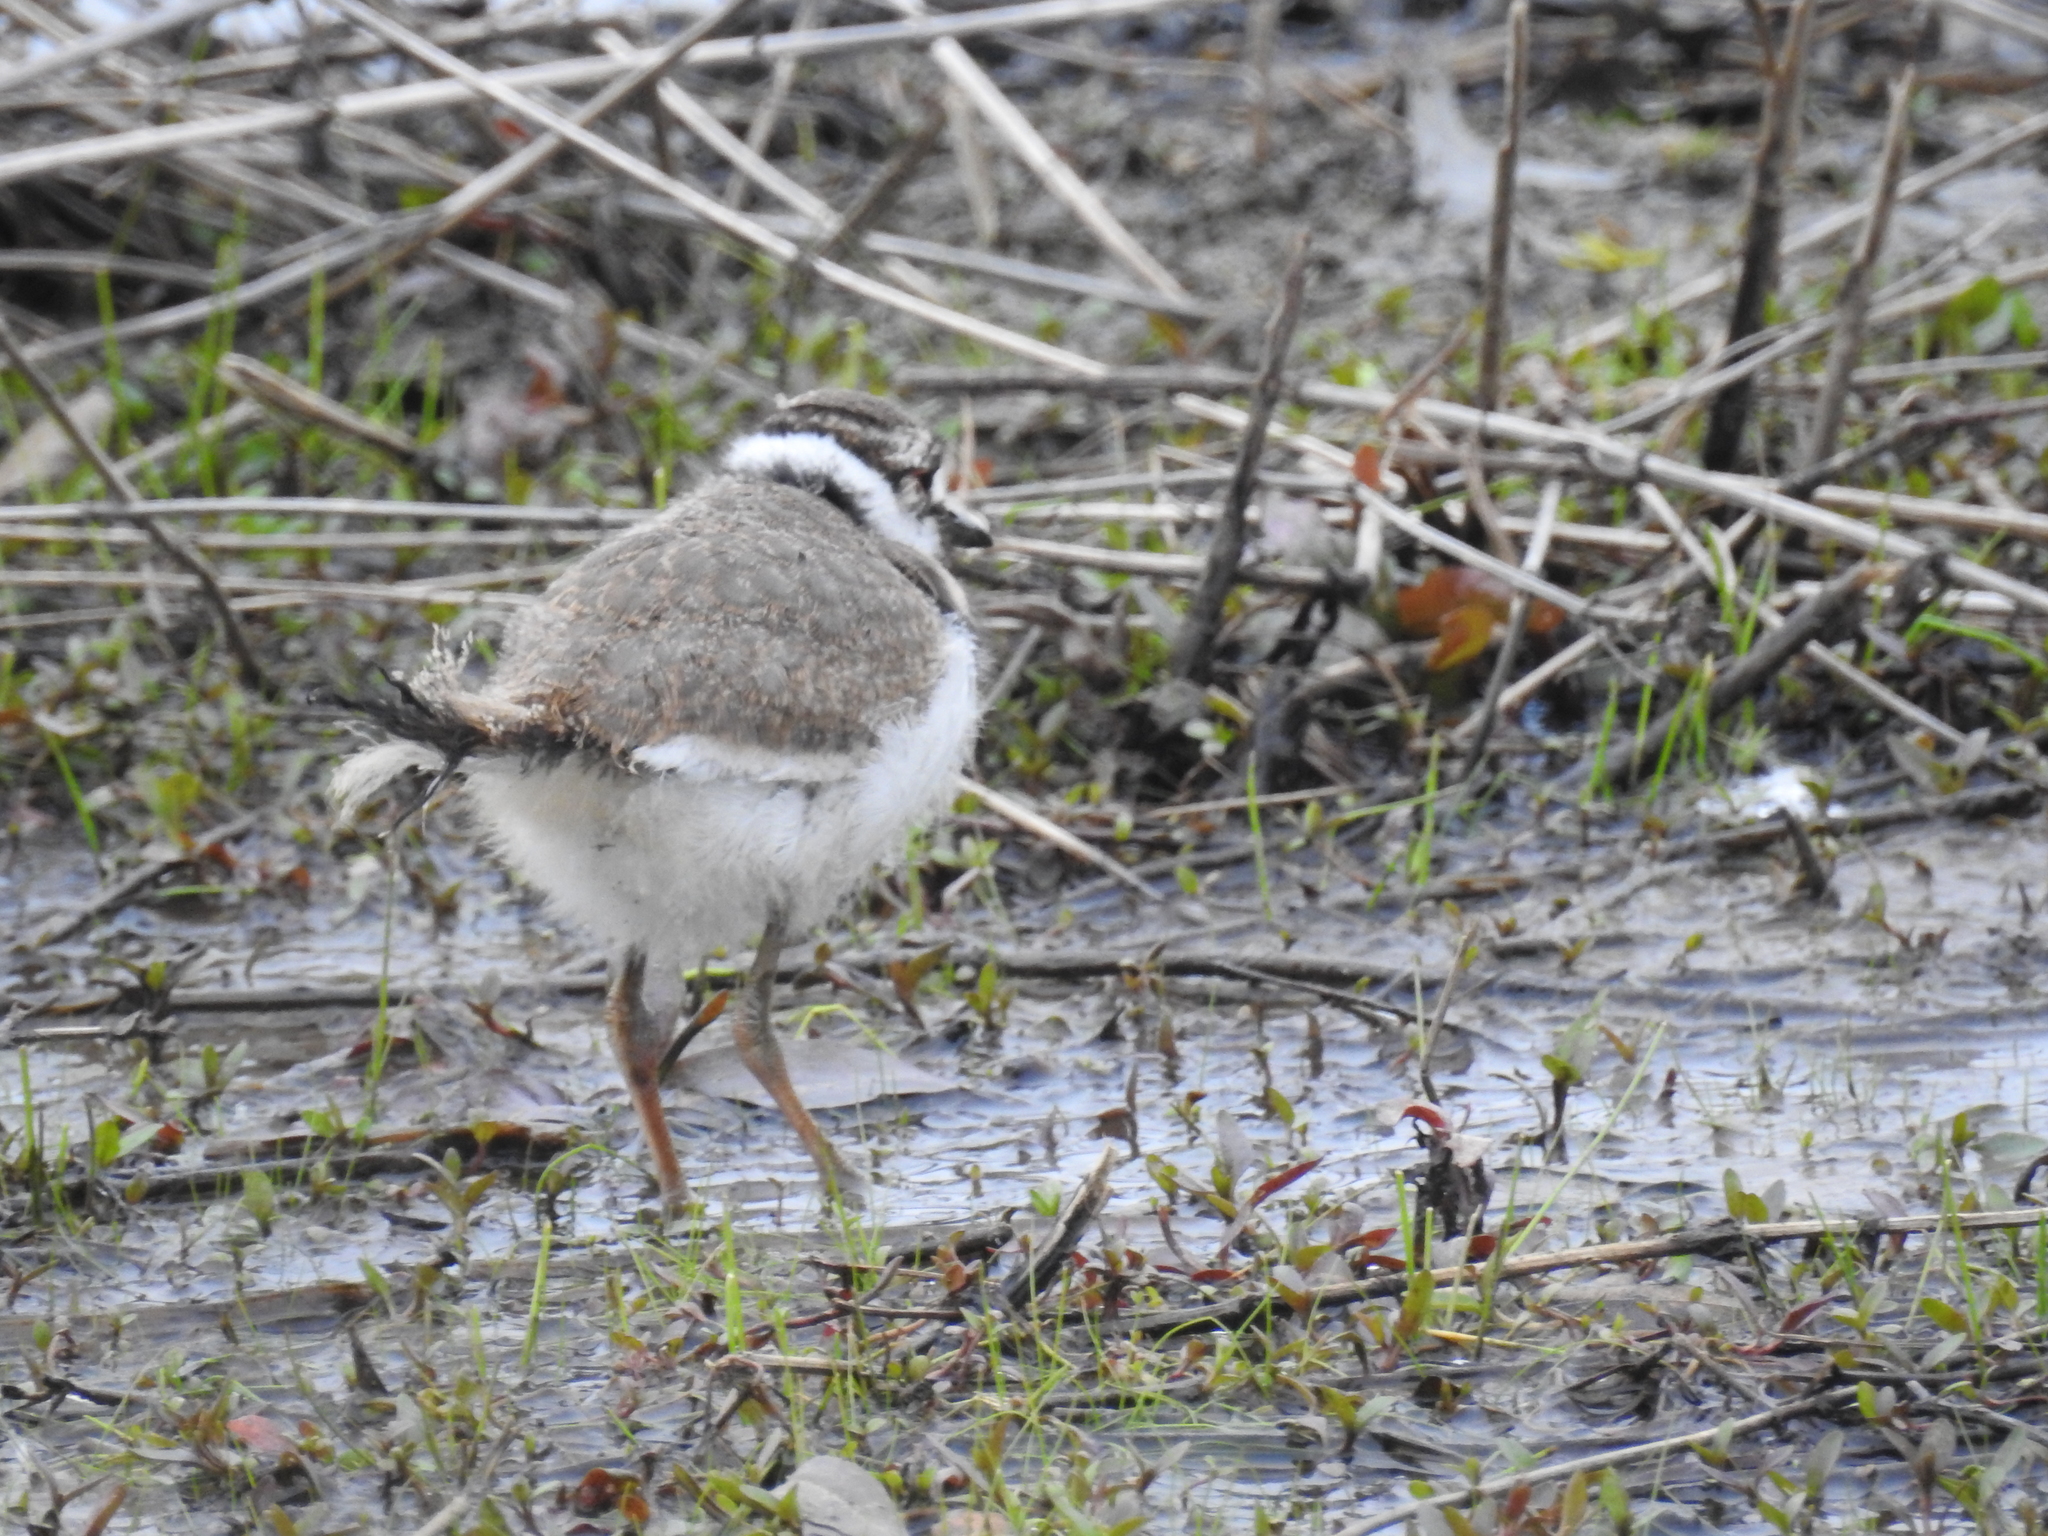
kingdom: Animalia
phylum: Chordata
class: Aves
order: Charadriiformes
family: Charadriidae
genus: Charadrius
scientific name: Charadrius vociferus
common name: Killdeer
